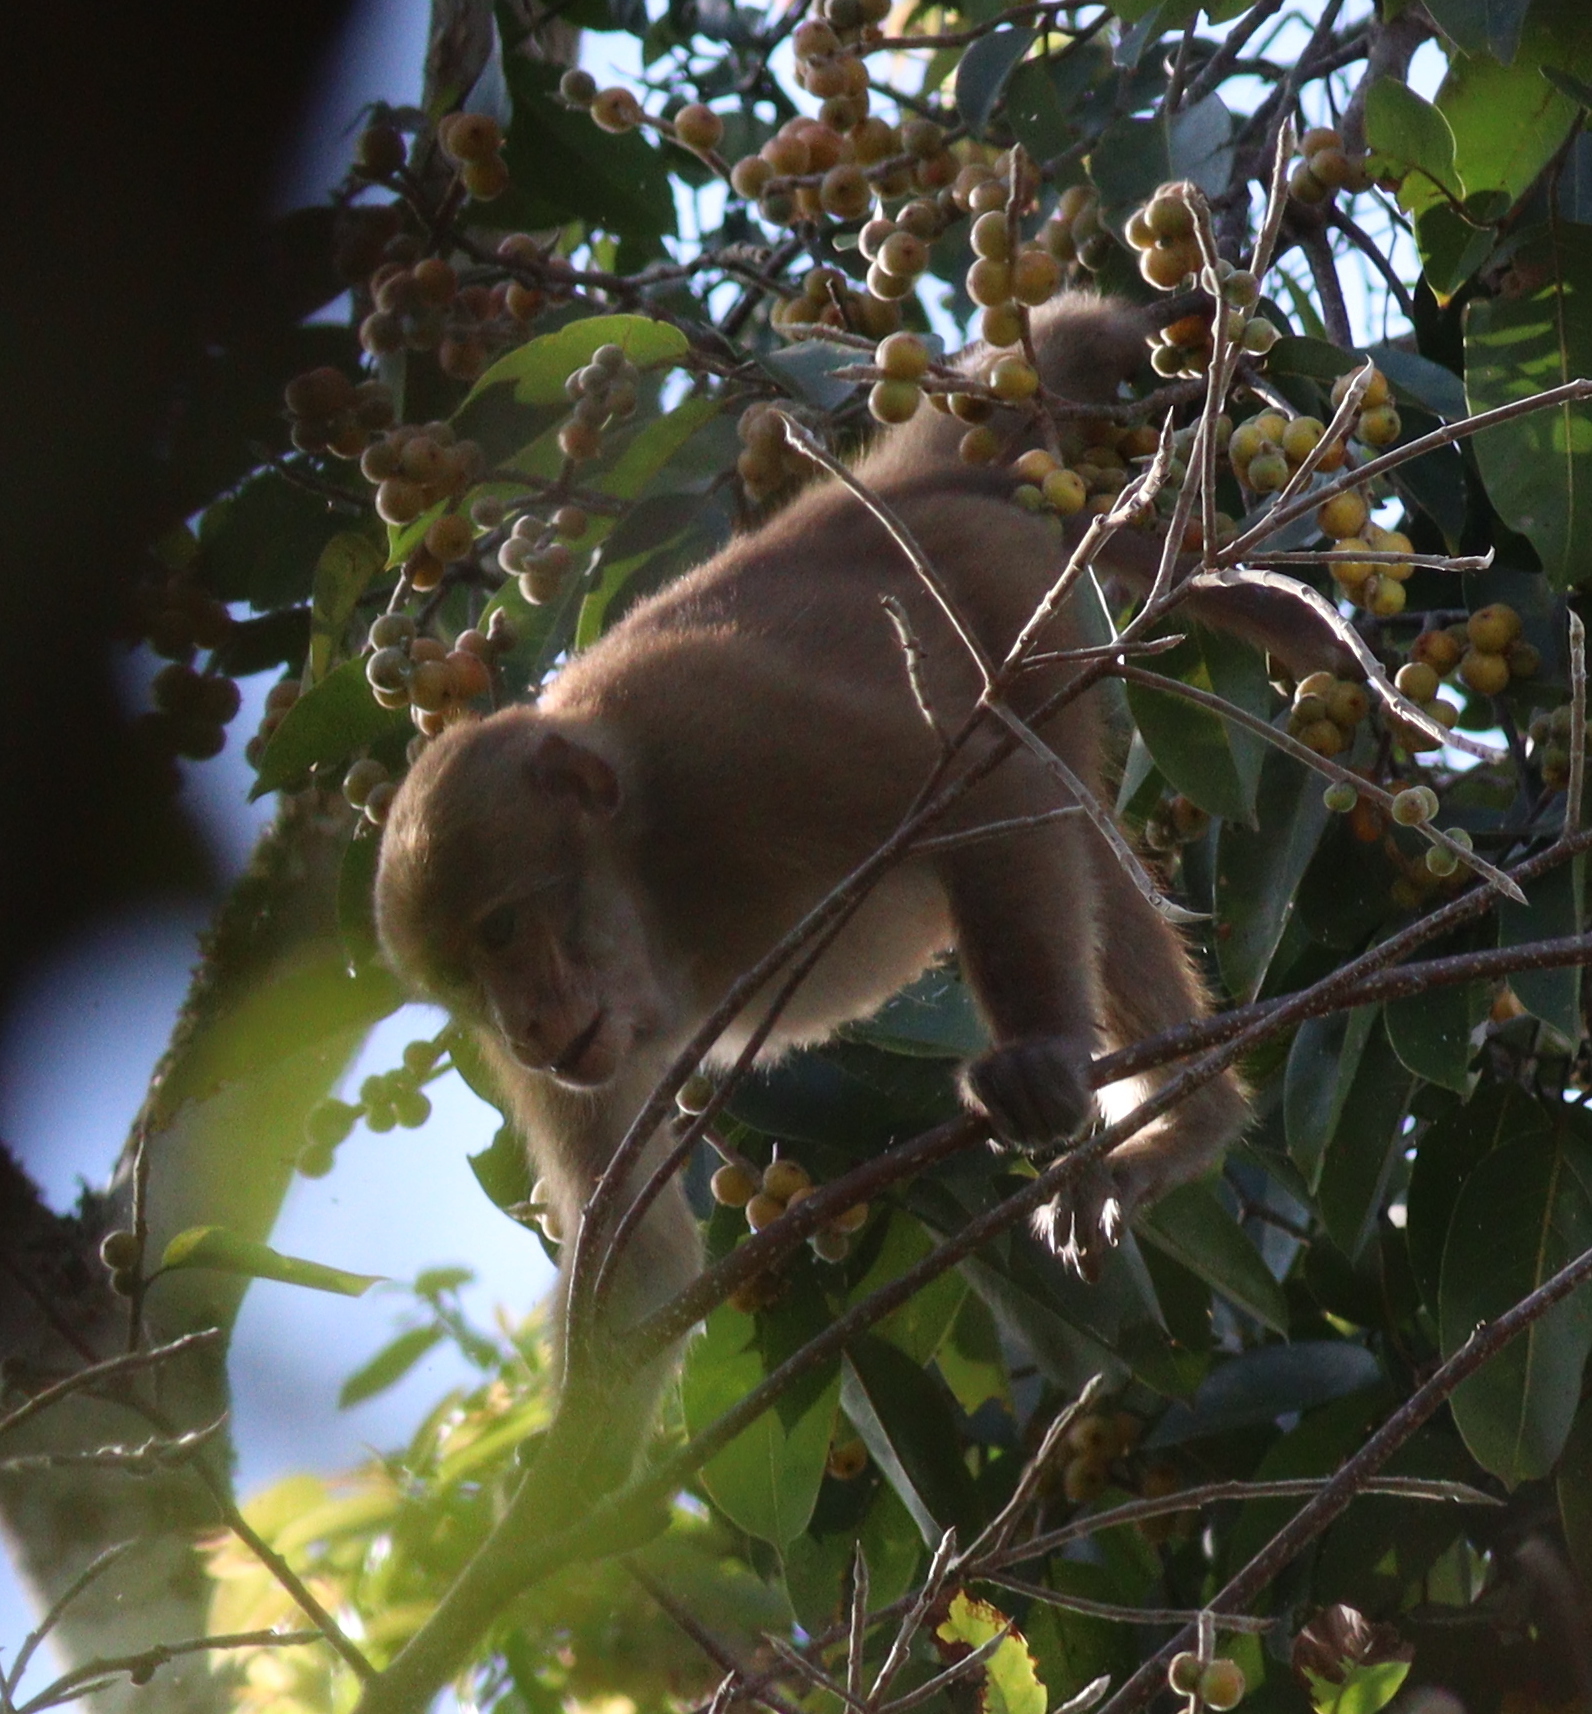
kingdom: Animalia
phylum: Chordata
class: Mammalia
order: Primates
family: Cercopithecidae
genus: Macaca
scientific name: Macaca assamensis
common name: Assam macaque
